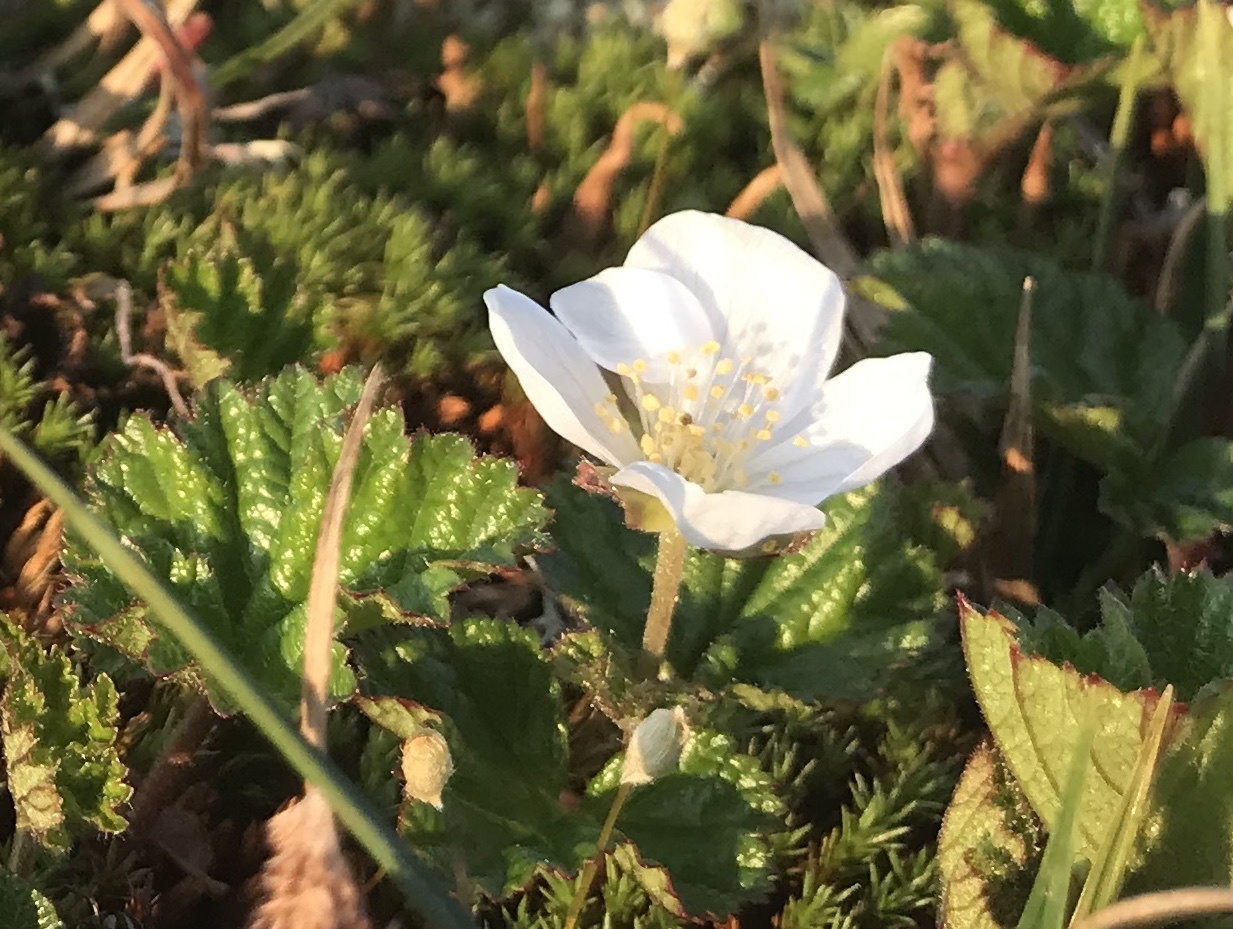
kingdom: Plantae
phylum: Tracheophyta
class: Magnoliopsida
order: Rosales
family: Rosaceae
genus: Rubus
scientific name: Rubus chamaemorus
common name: Cloudberry
